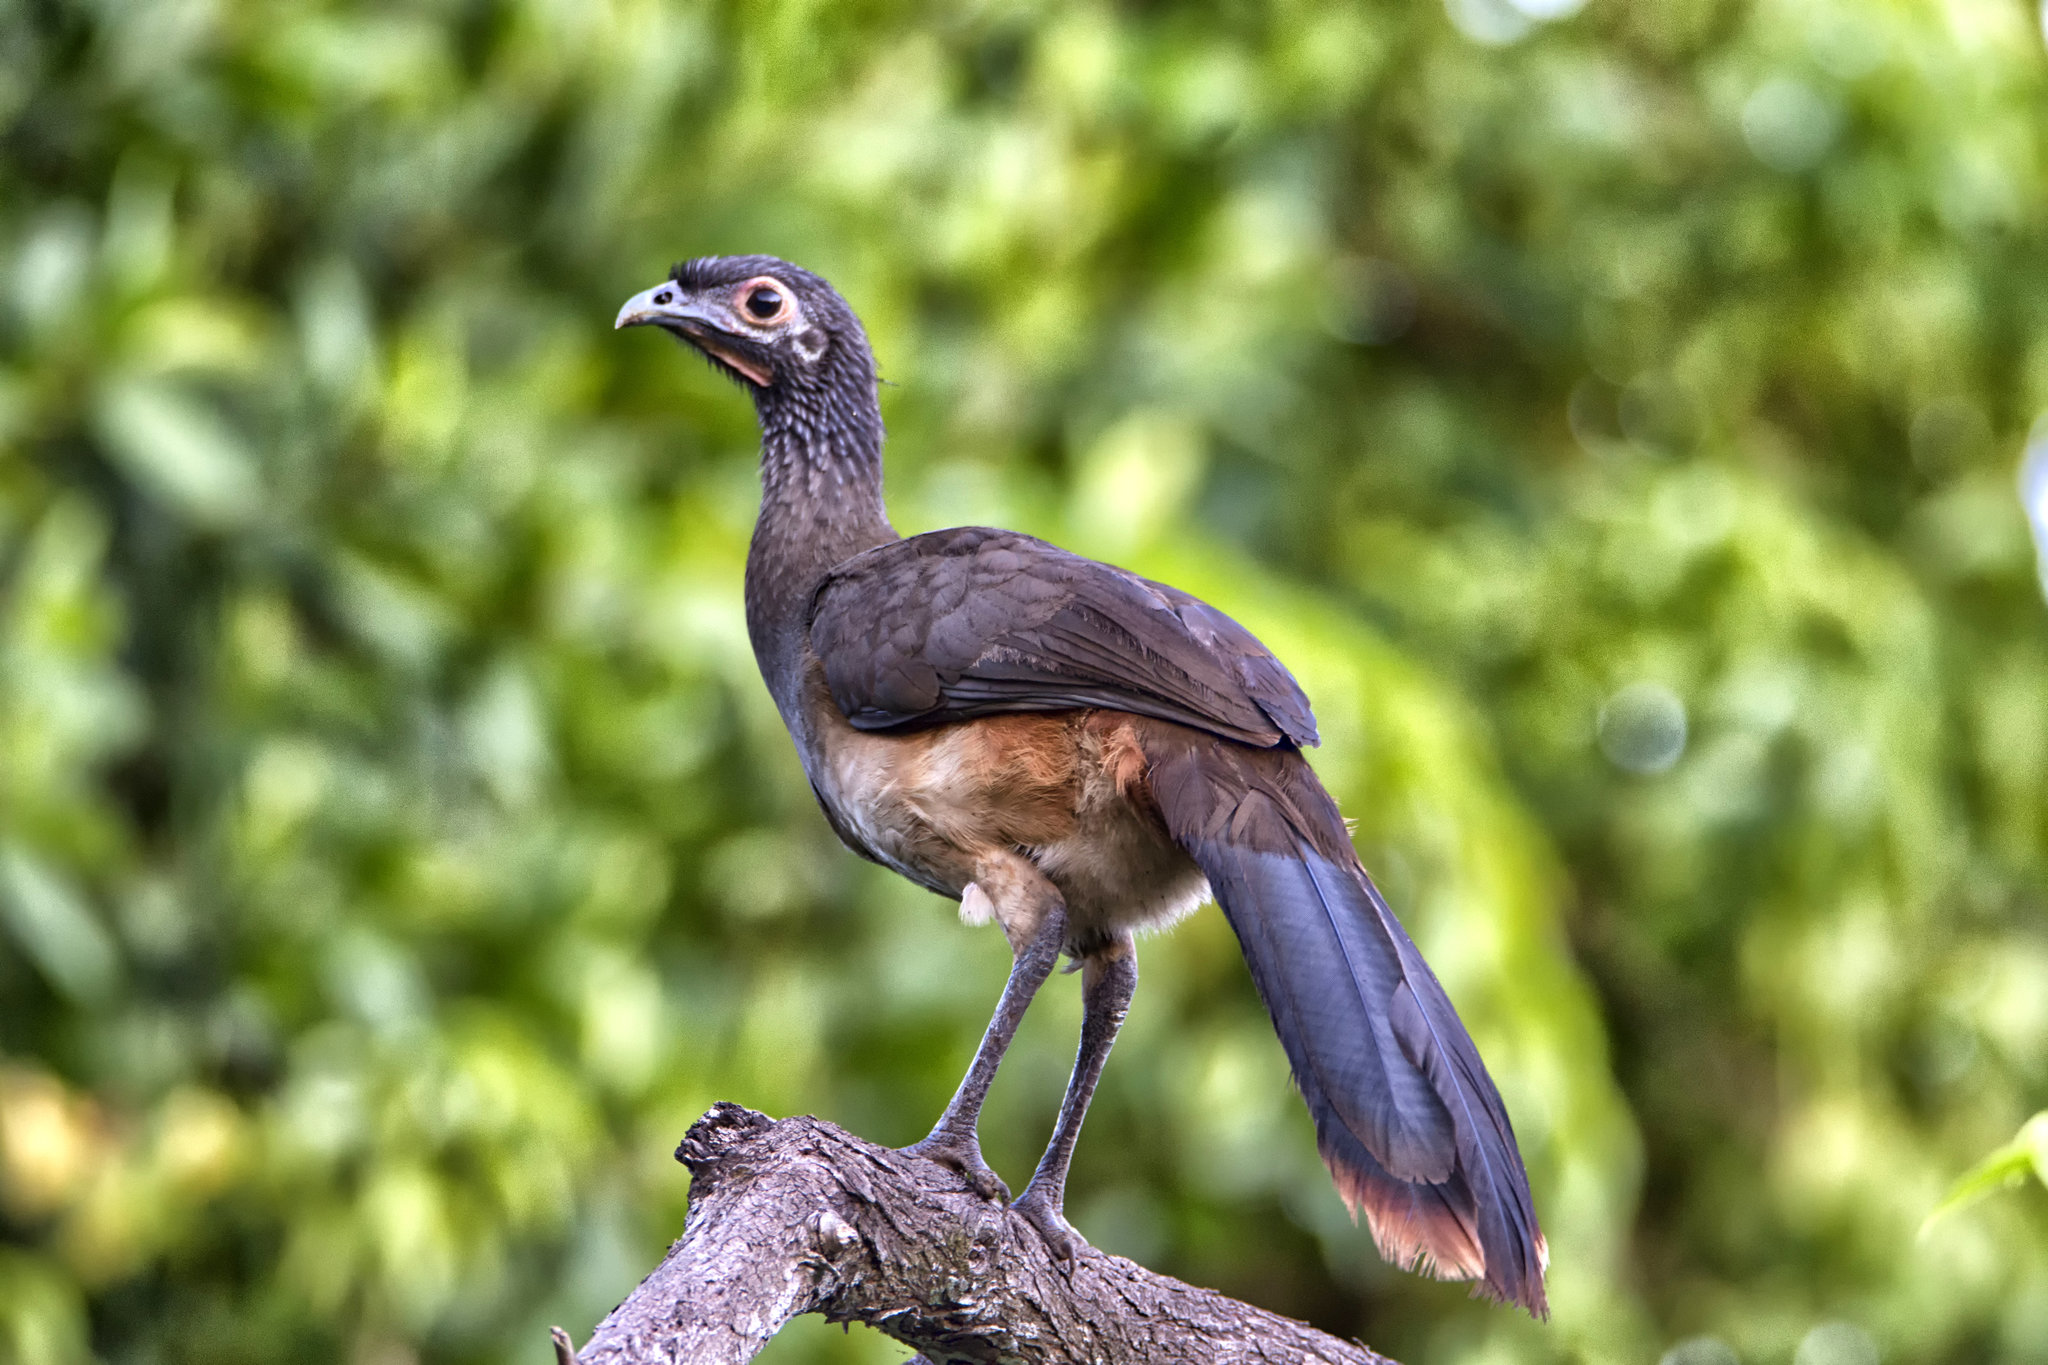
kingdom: Animalia
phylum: Chordata
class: Aves
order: Galliformes
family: Cracidae
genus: Ortalis
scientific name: Ortalis poliocephala
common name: West mexican chachalaca
